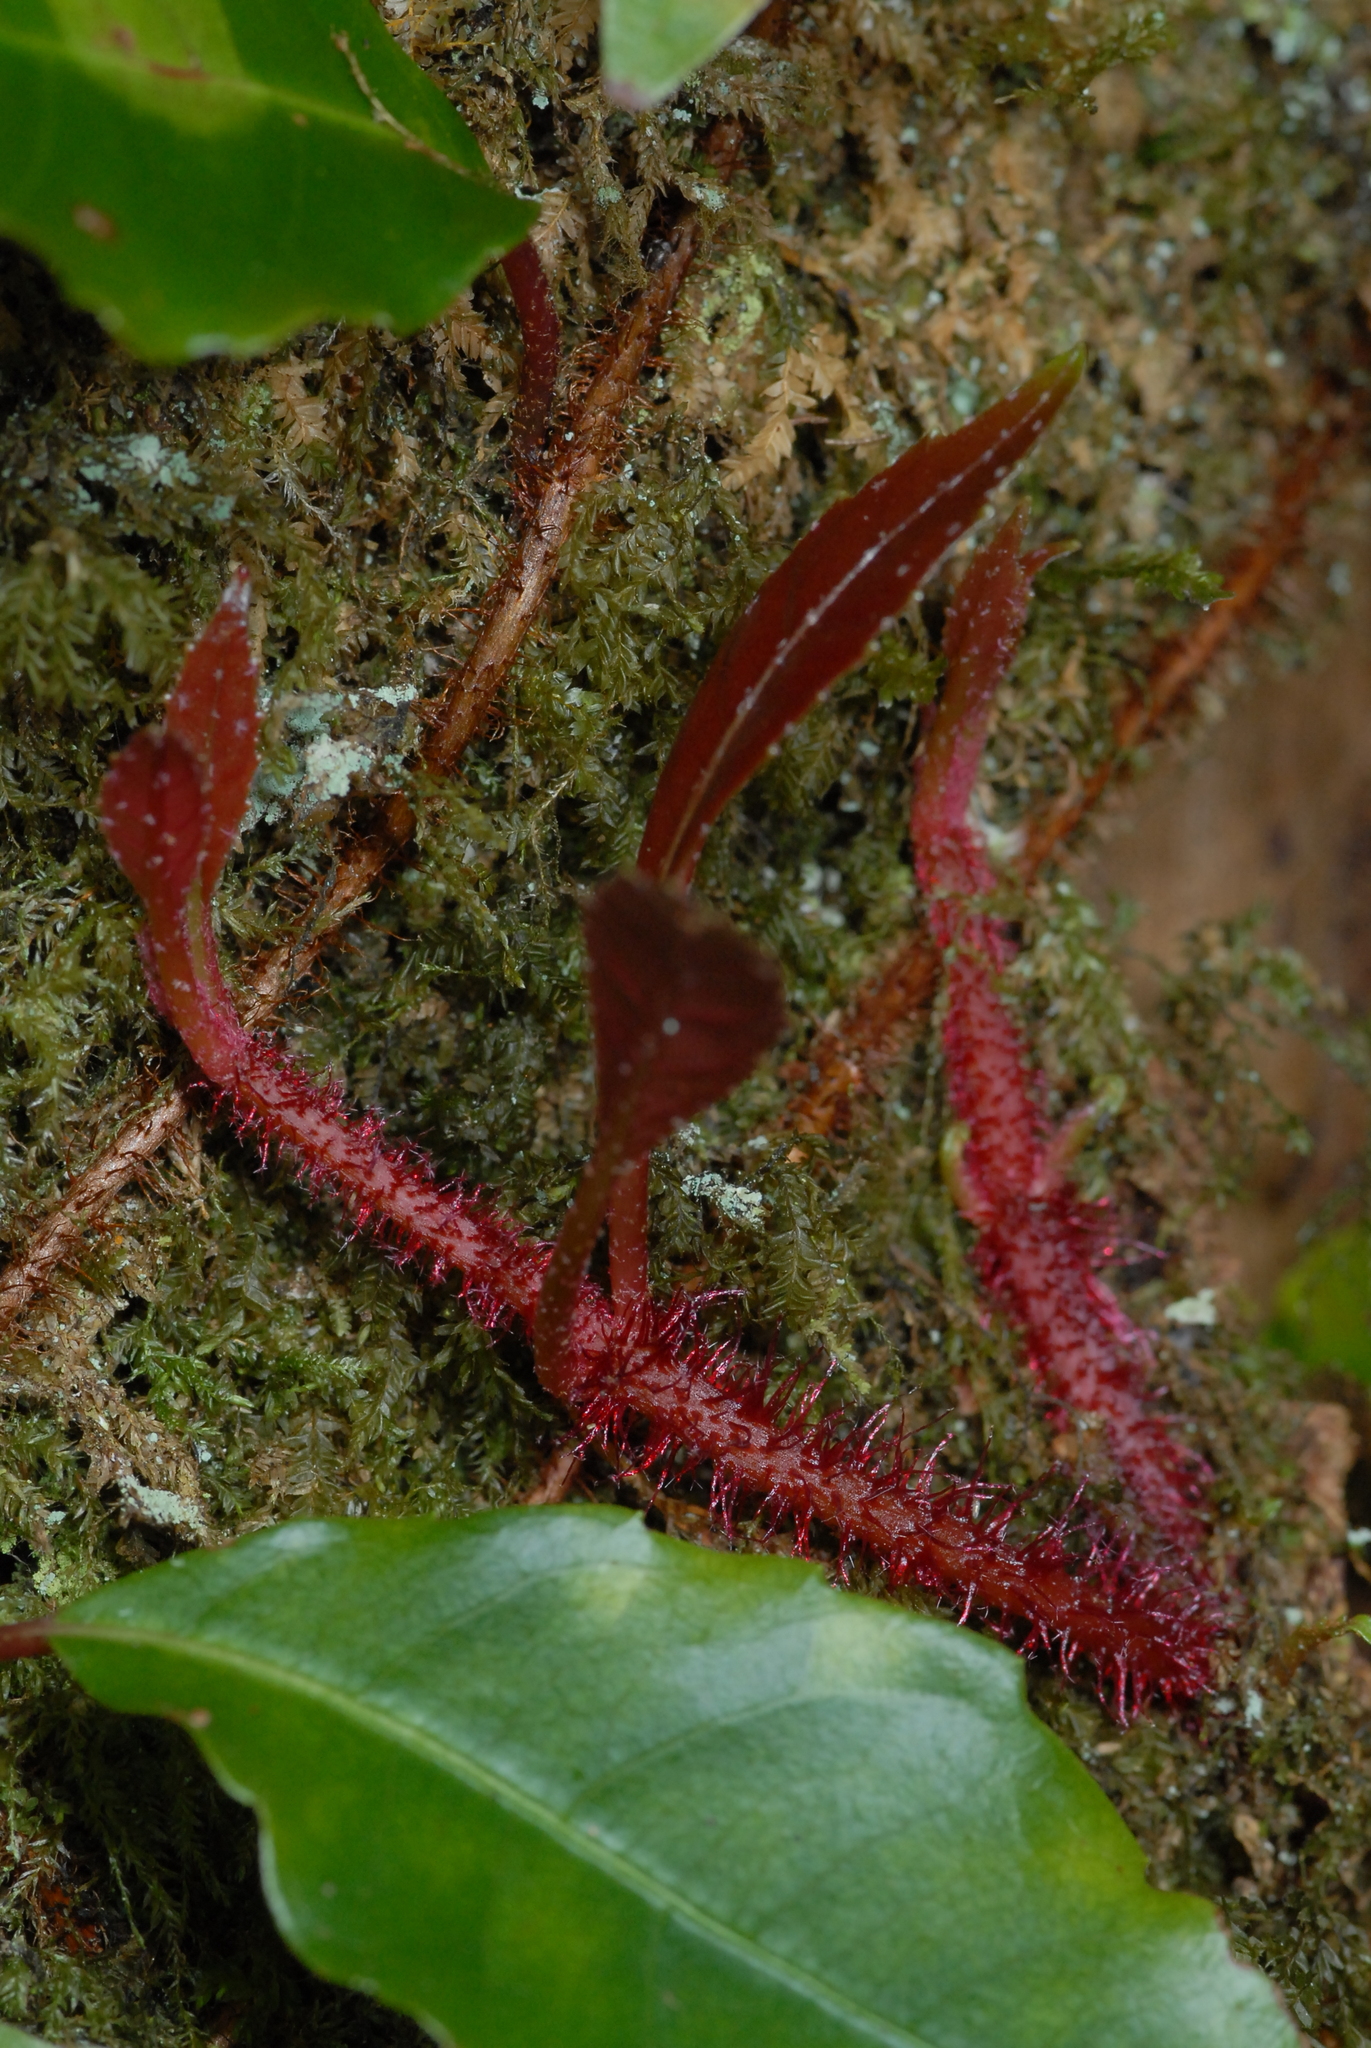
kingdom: Plantae
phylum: Tracheophyta
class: Magnoliopsida
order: Cornales
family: Hydrangeaceae
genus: Hydrangea
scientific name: Hydrangea viburnoides
